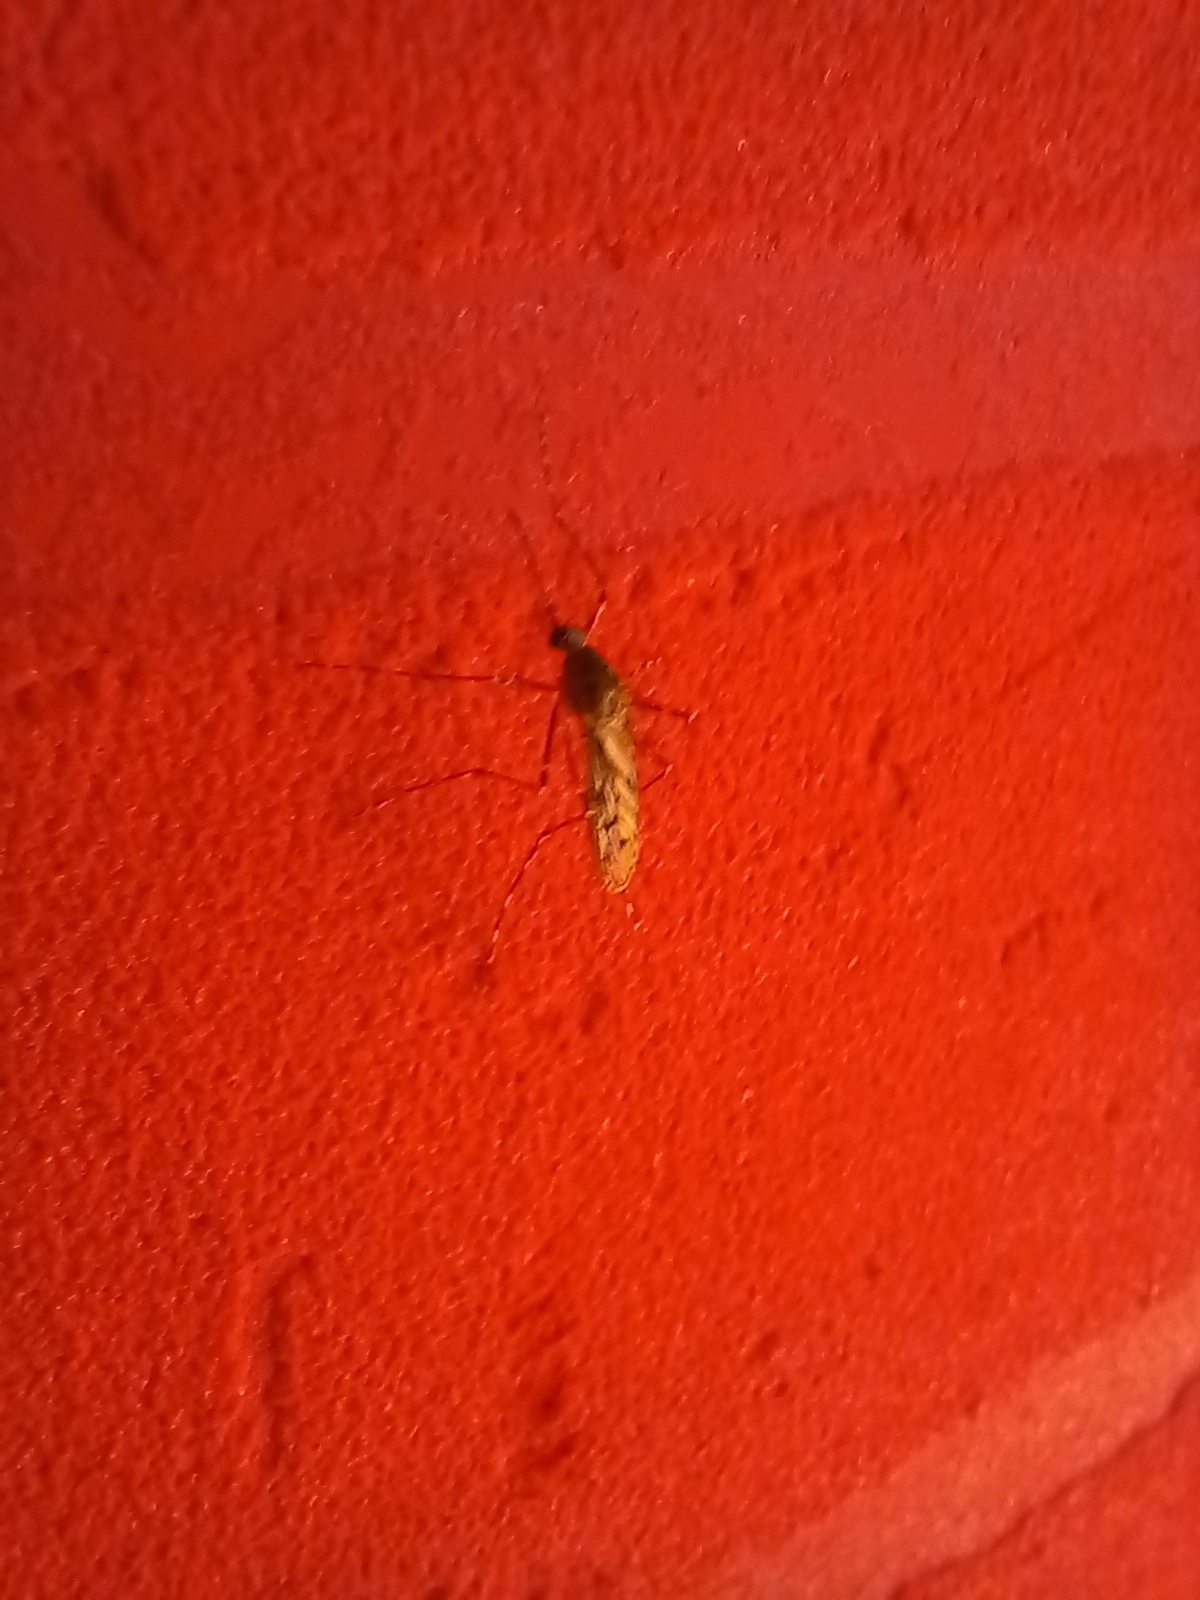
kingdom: Animalia
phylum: Arthropoda
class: Insecta
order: Diptera
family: Culicidae
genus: Culiseta
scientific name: Culiseta annulata
